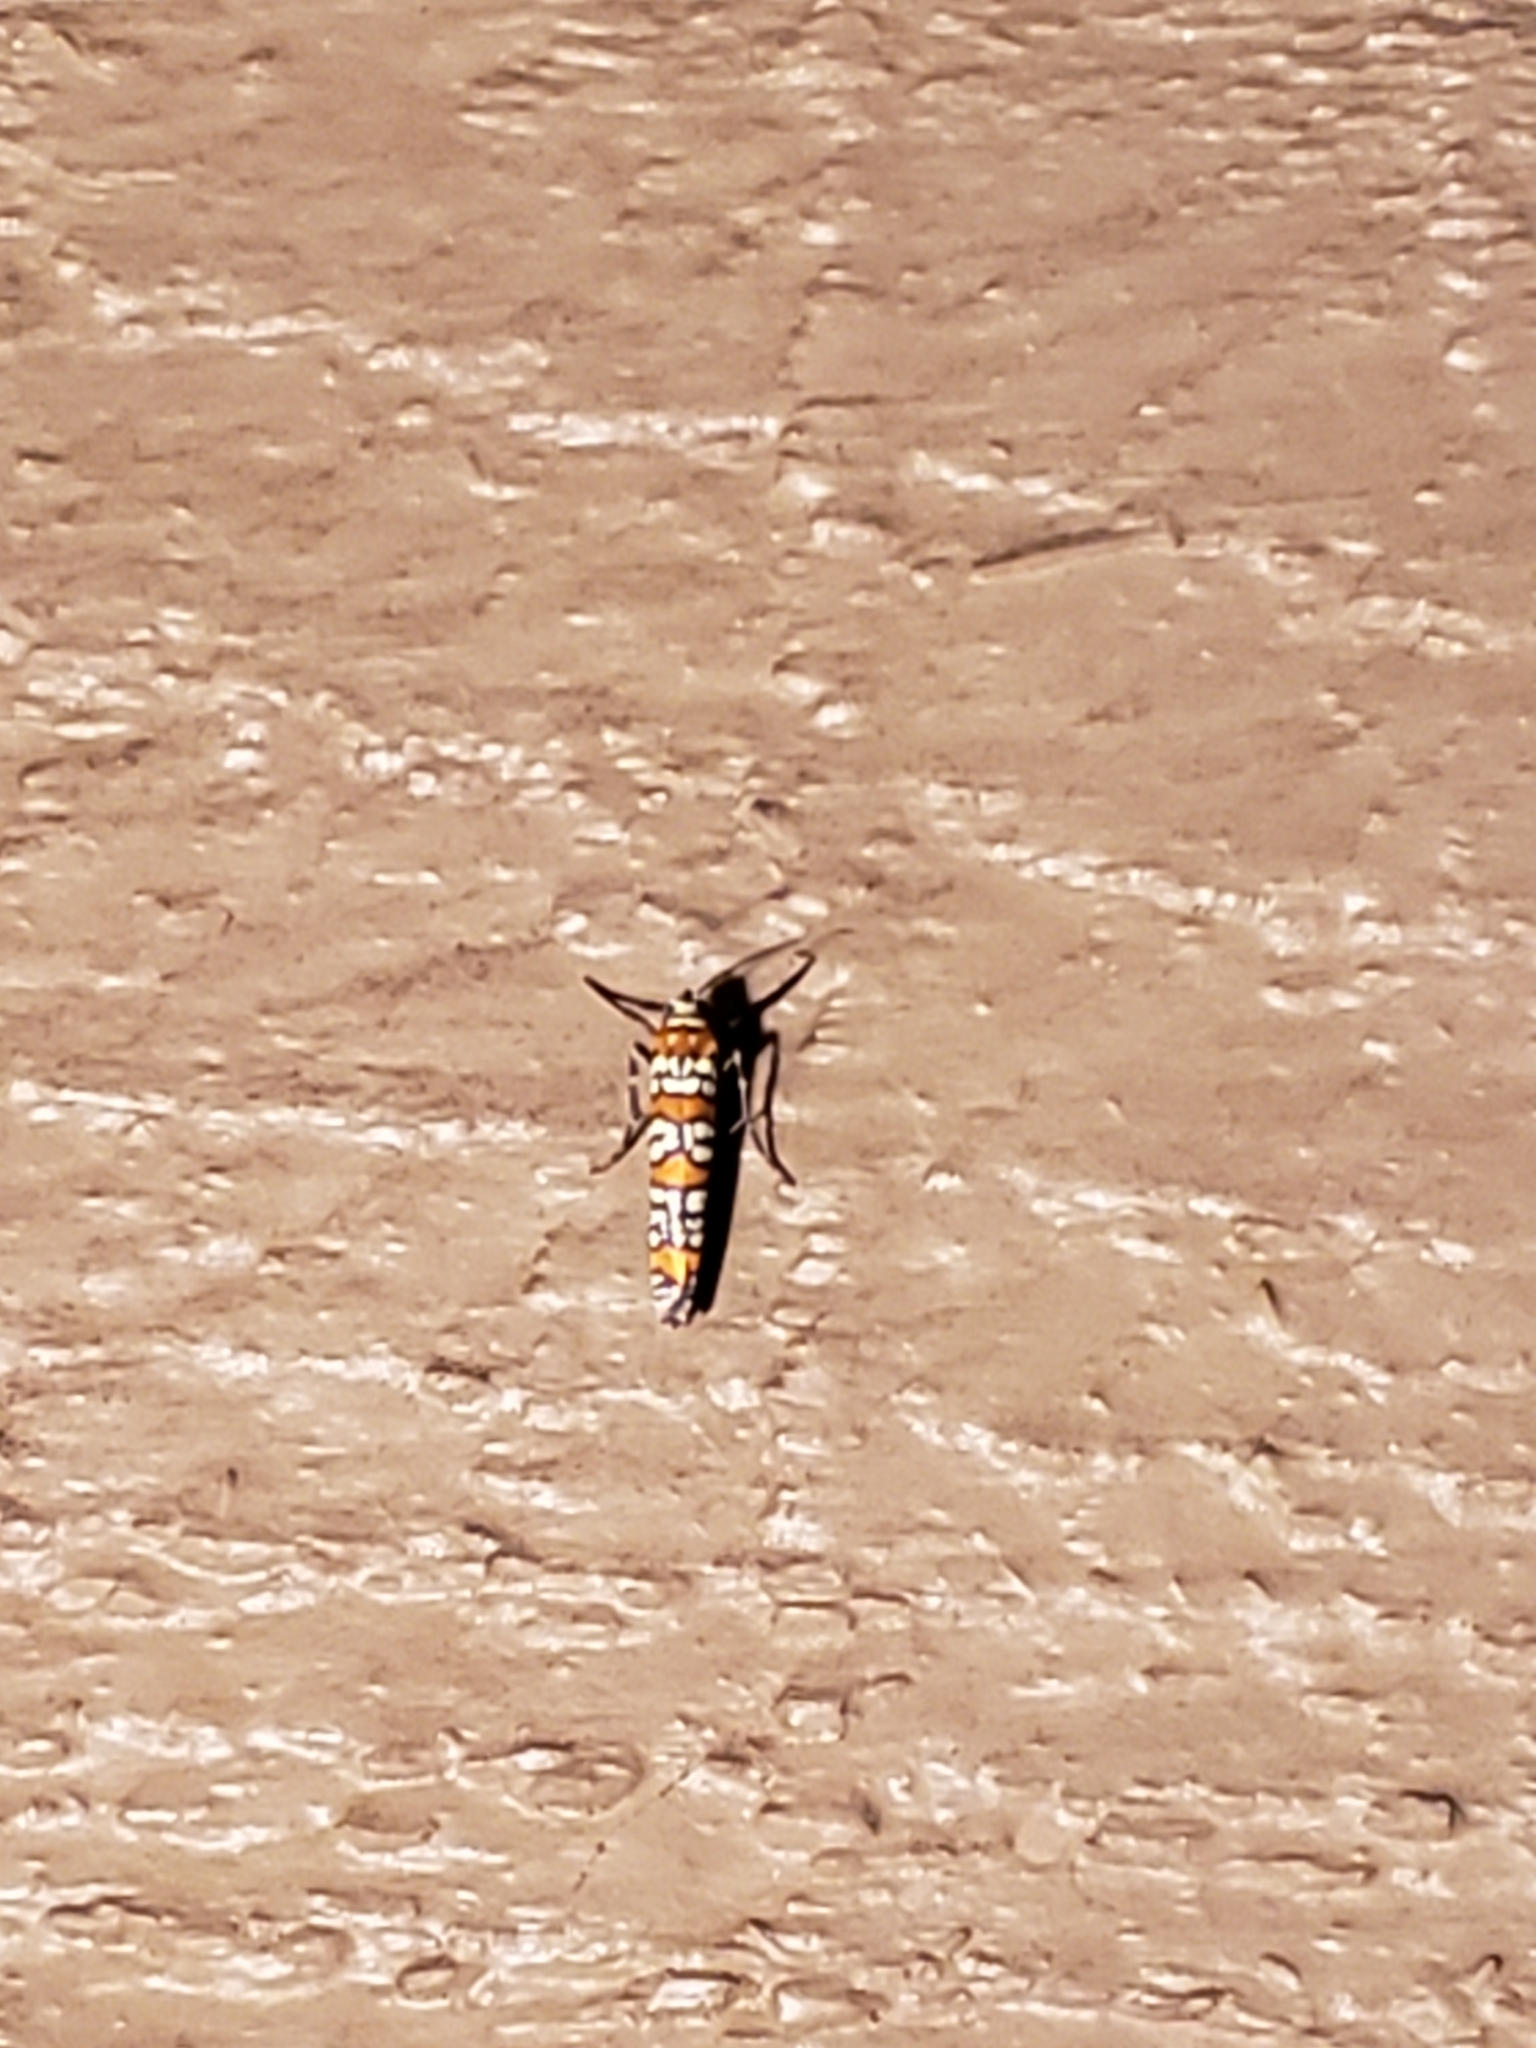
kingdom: Animalia
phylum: Arthropoda
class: Insecta
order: Lepidoptera
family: Attevidae
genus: Atteva
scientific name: Atteva punctella
